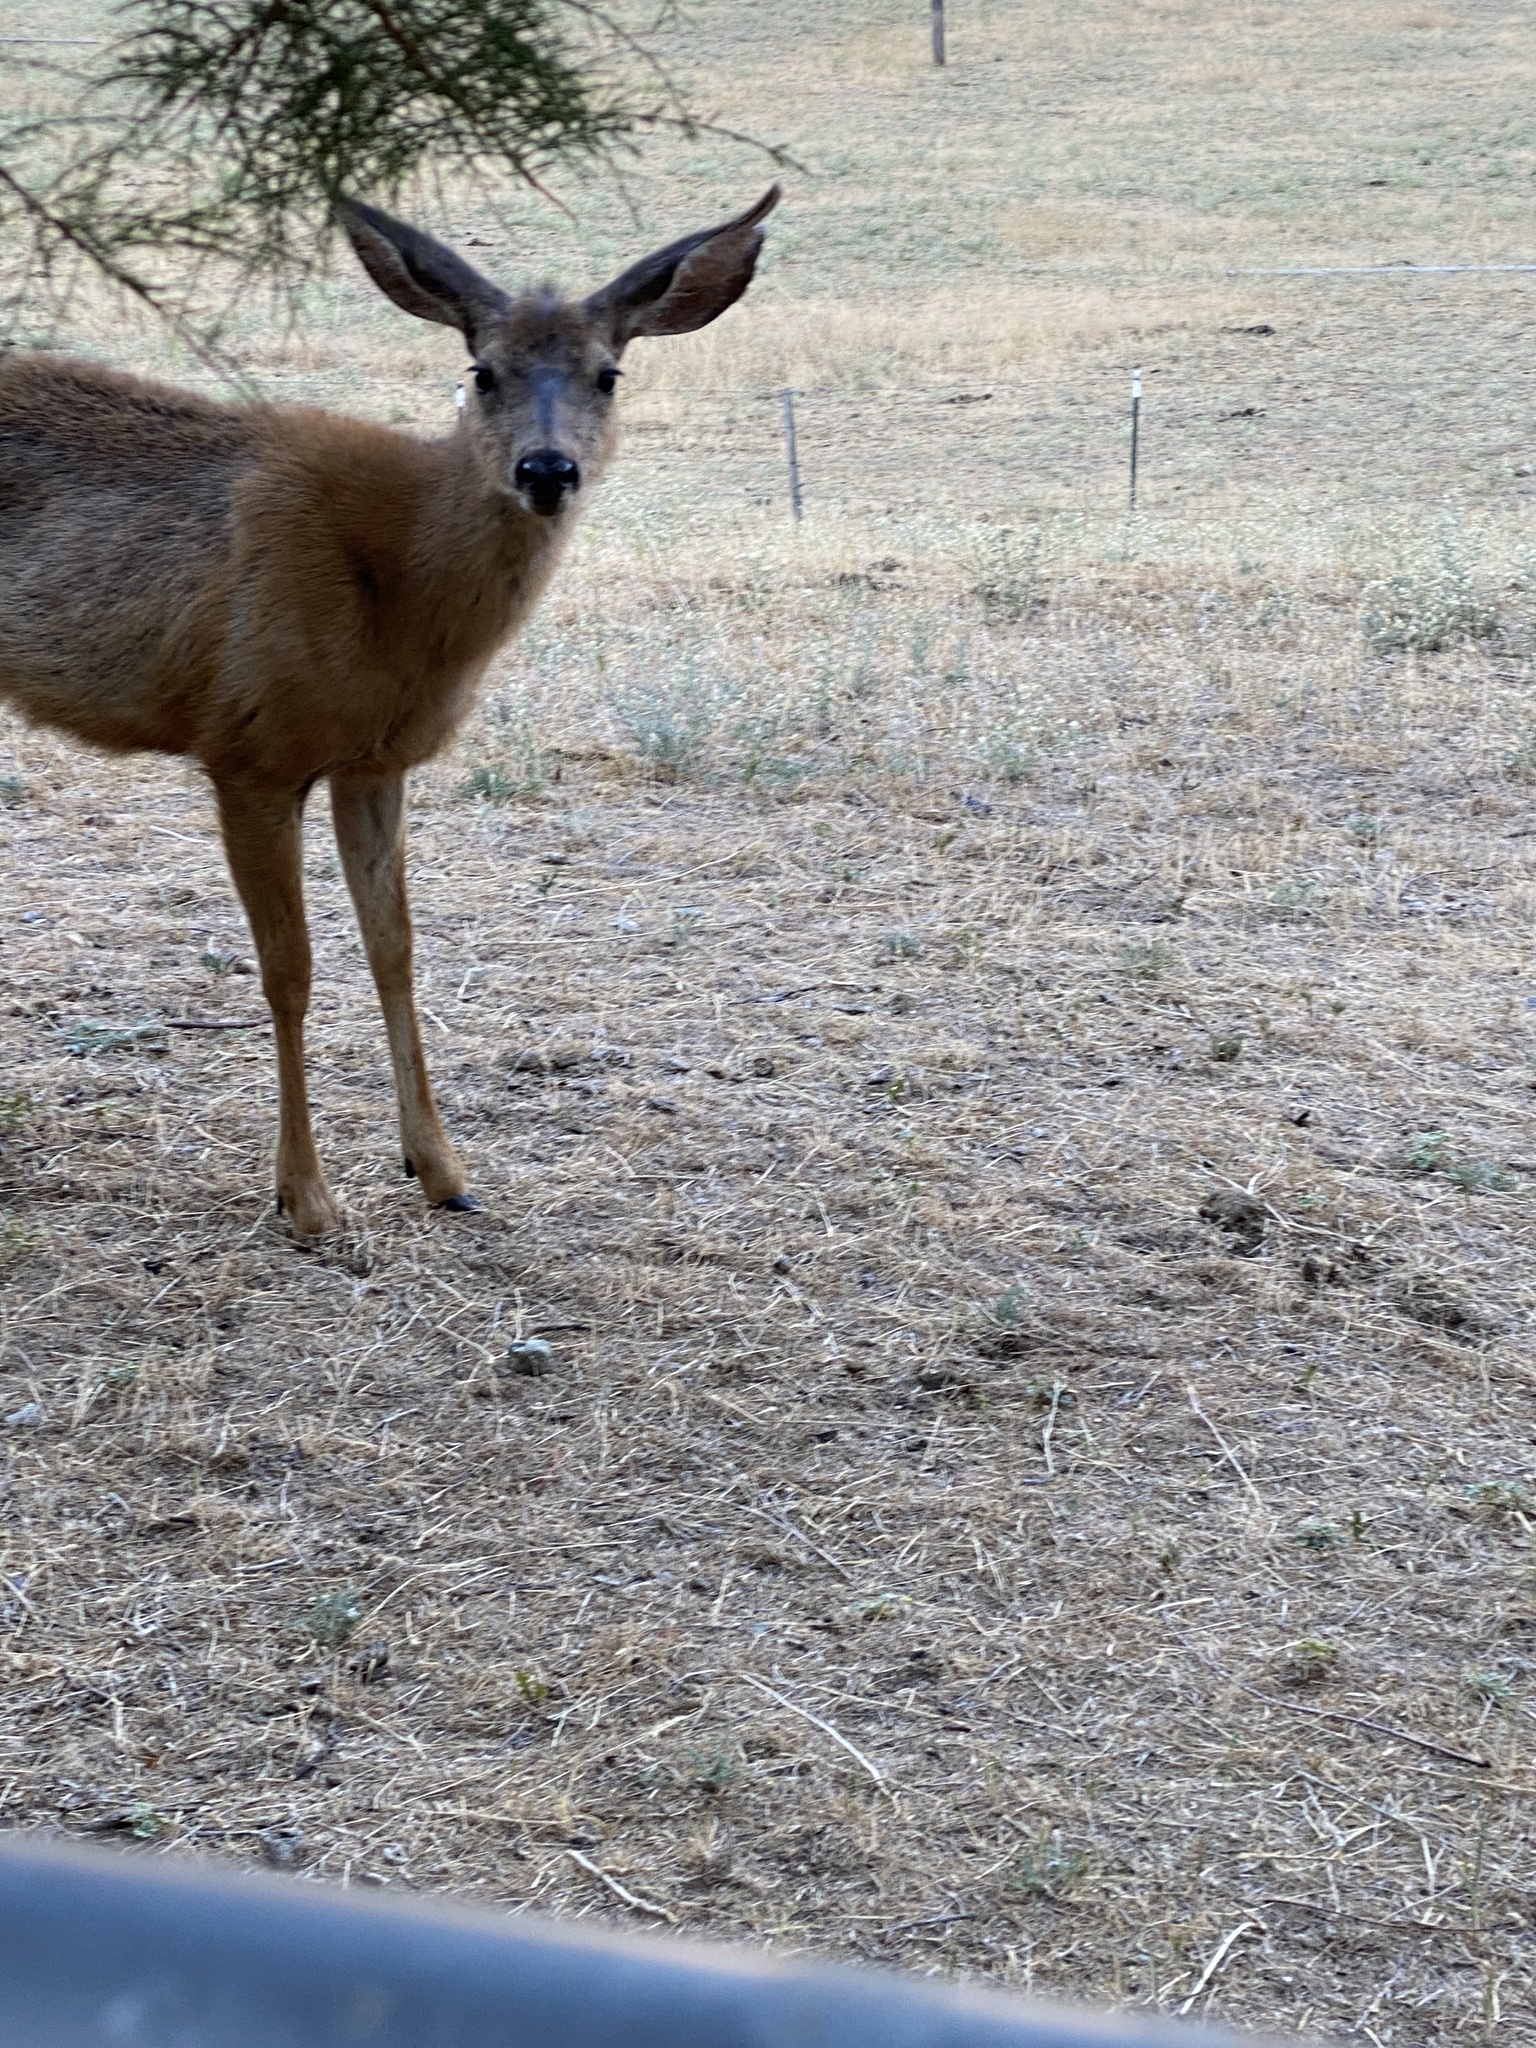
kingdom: Animalia
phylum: Chordata
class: Mammalia
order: Artiodactyla
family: Cervidae
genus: Odocoileus
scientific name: Odocoileus hemionus
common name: Mule deer
